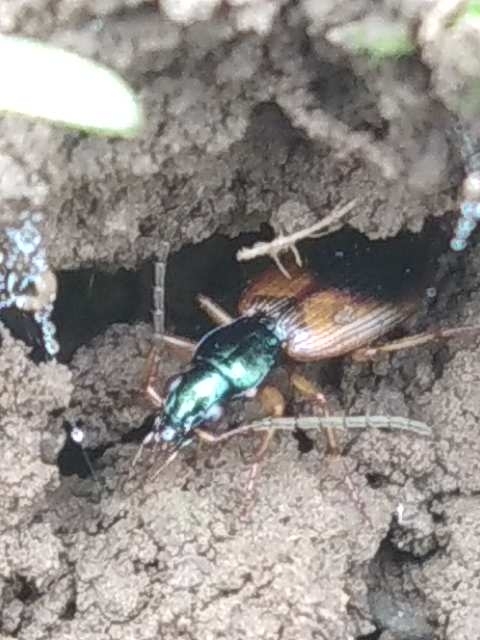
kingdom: Animalia
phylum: Arthropoda
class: Insecta
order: Coleoptera
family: Carabidae
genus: Anchomenus
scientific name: Anchomenus dorsalis
